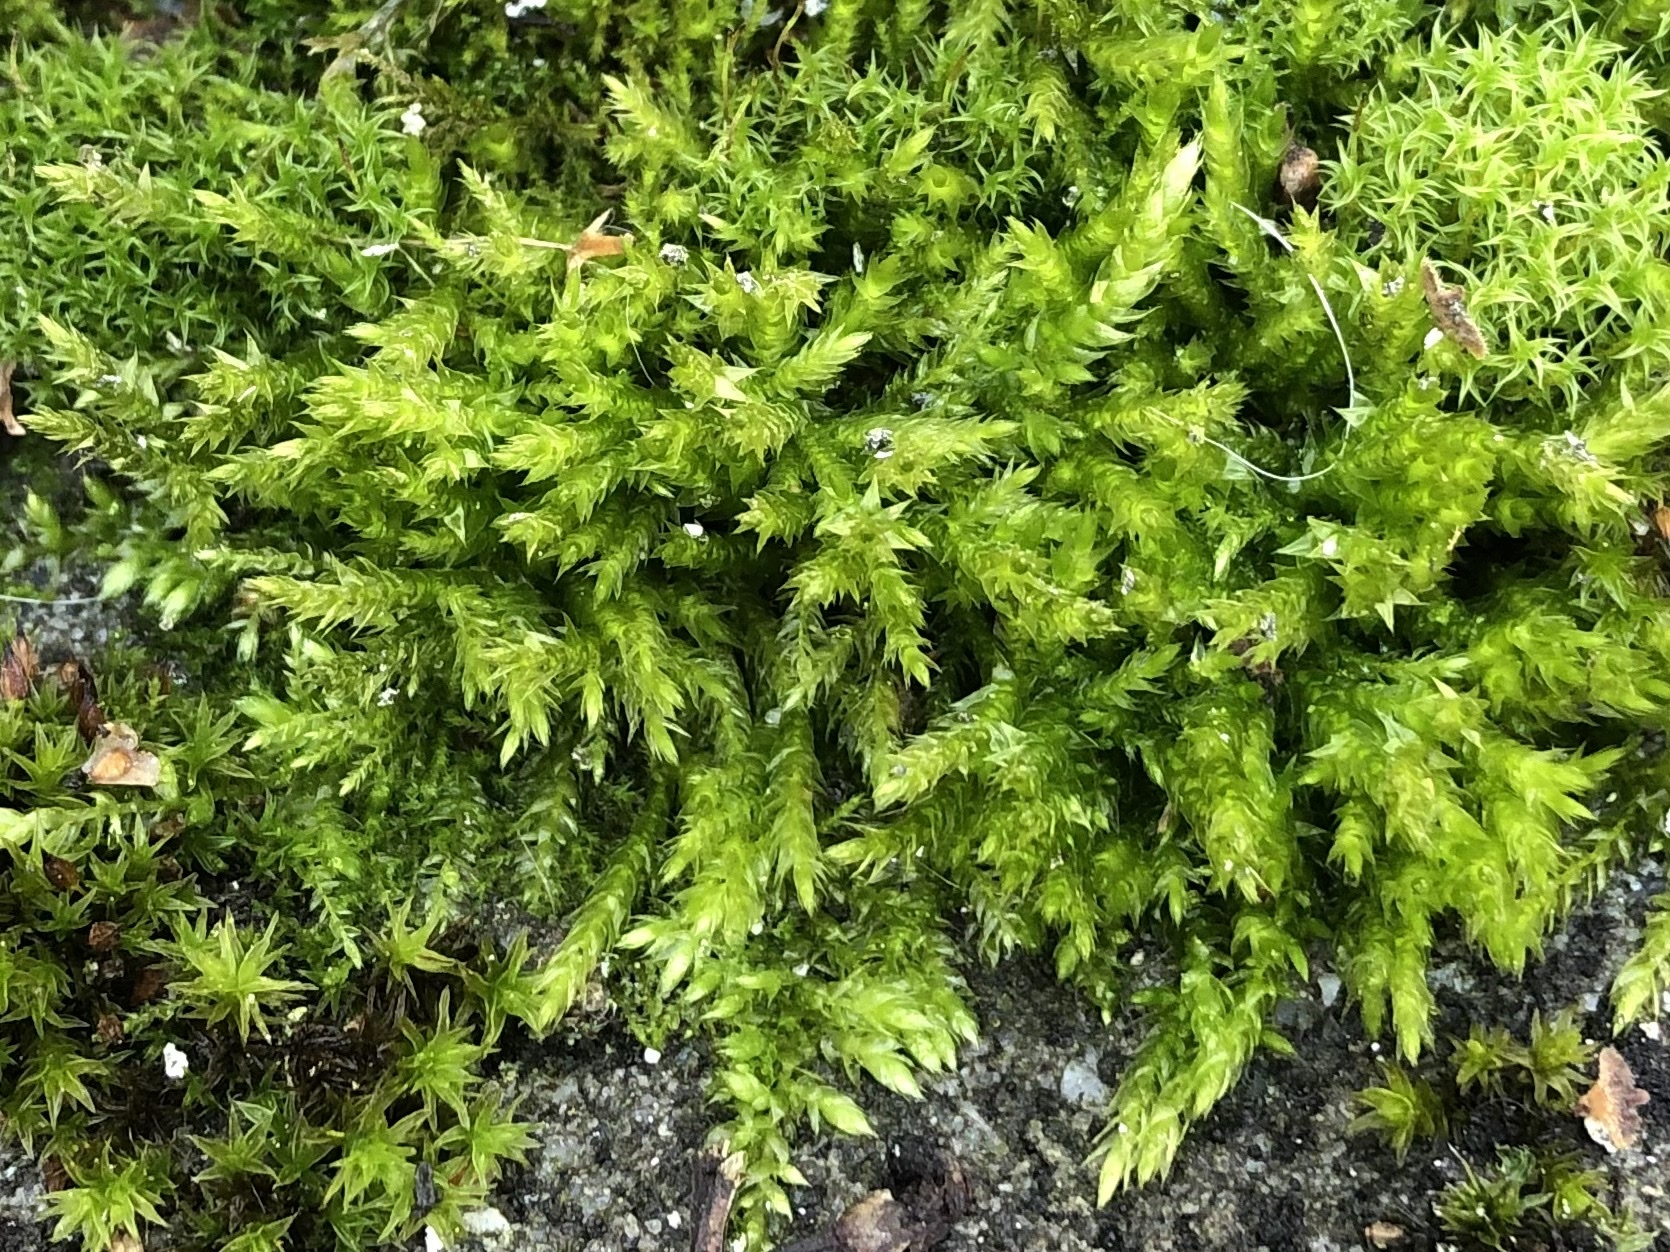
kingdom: Plantae
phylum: Bryophyta
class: Bryopsida
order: Hypnales
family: Brachytheciaceae
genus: Brachythecium
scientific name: Brachythecium rutabulum
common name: Rough-stalked feather-moss
